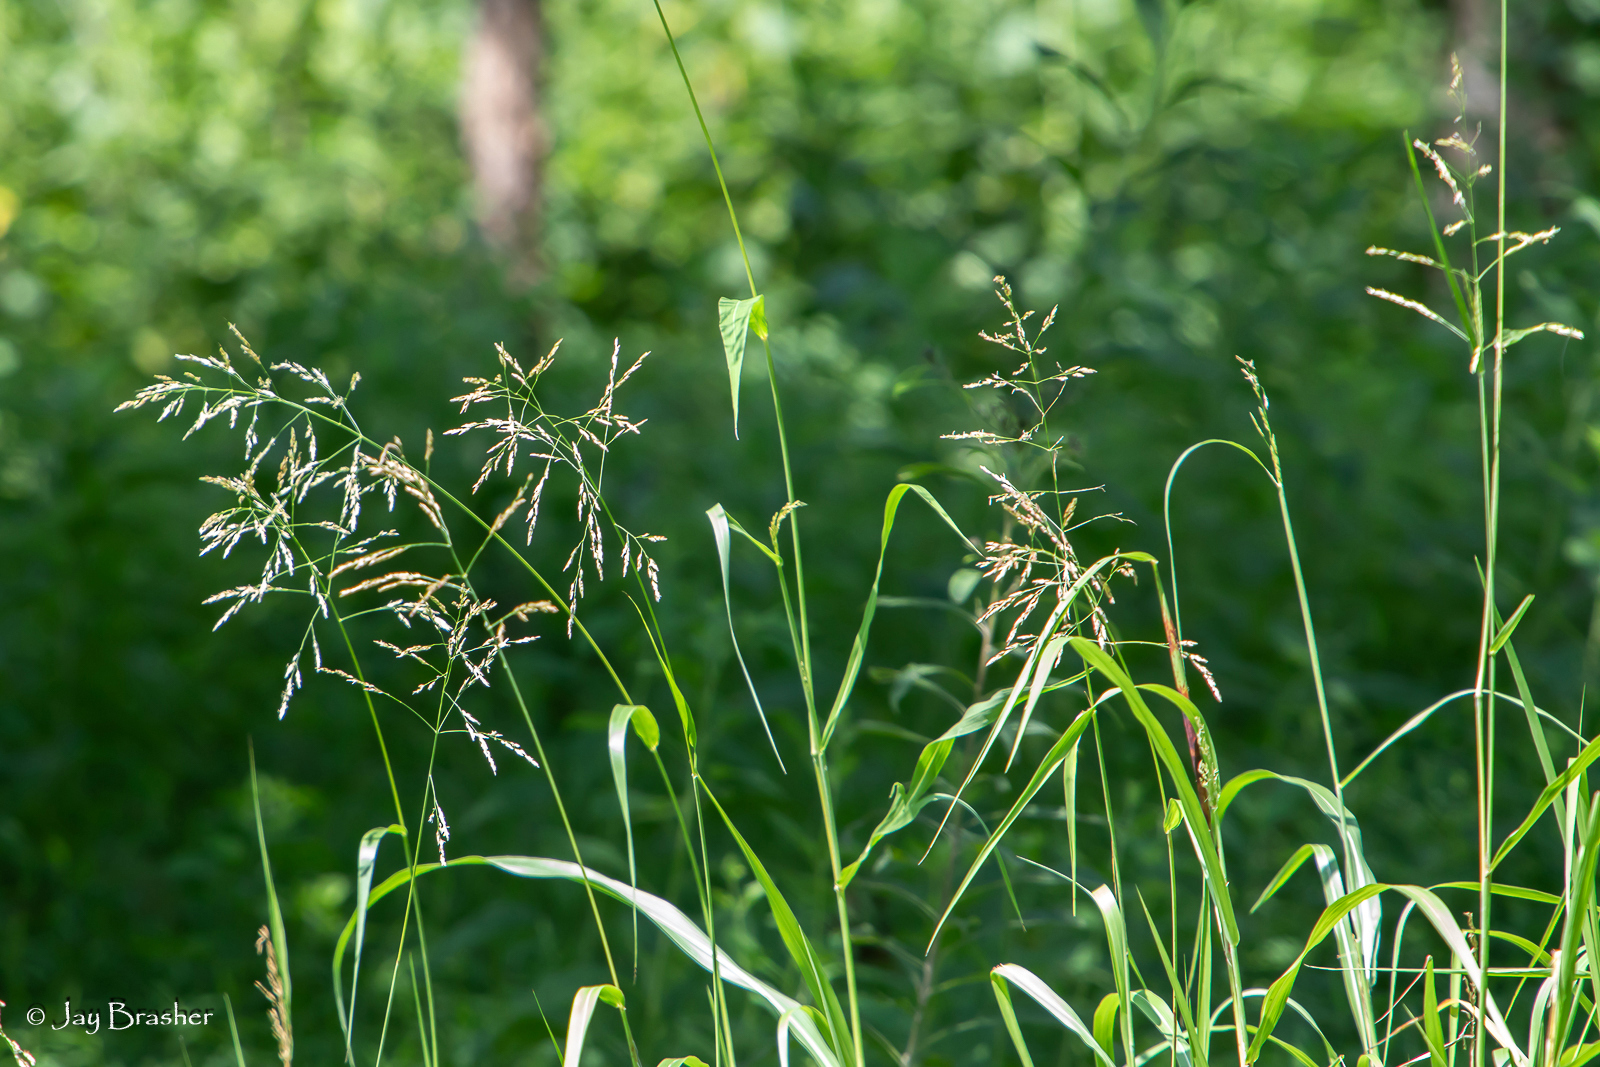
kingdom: Plantae
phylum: Tracheophyta
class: Liliopsida
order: Poales
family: Poaceae
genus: Sorghum
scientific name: Sorghum halepense
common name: Johnson-grass
